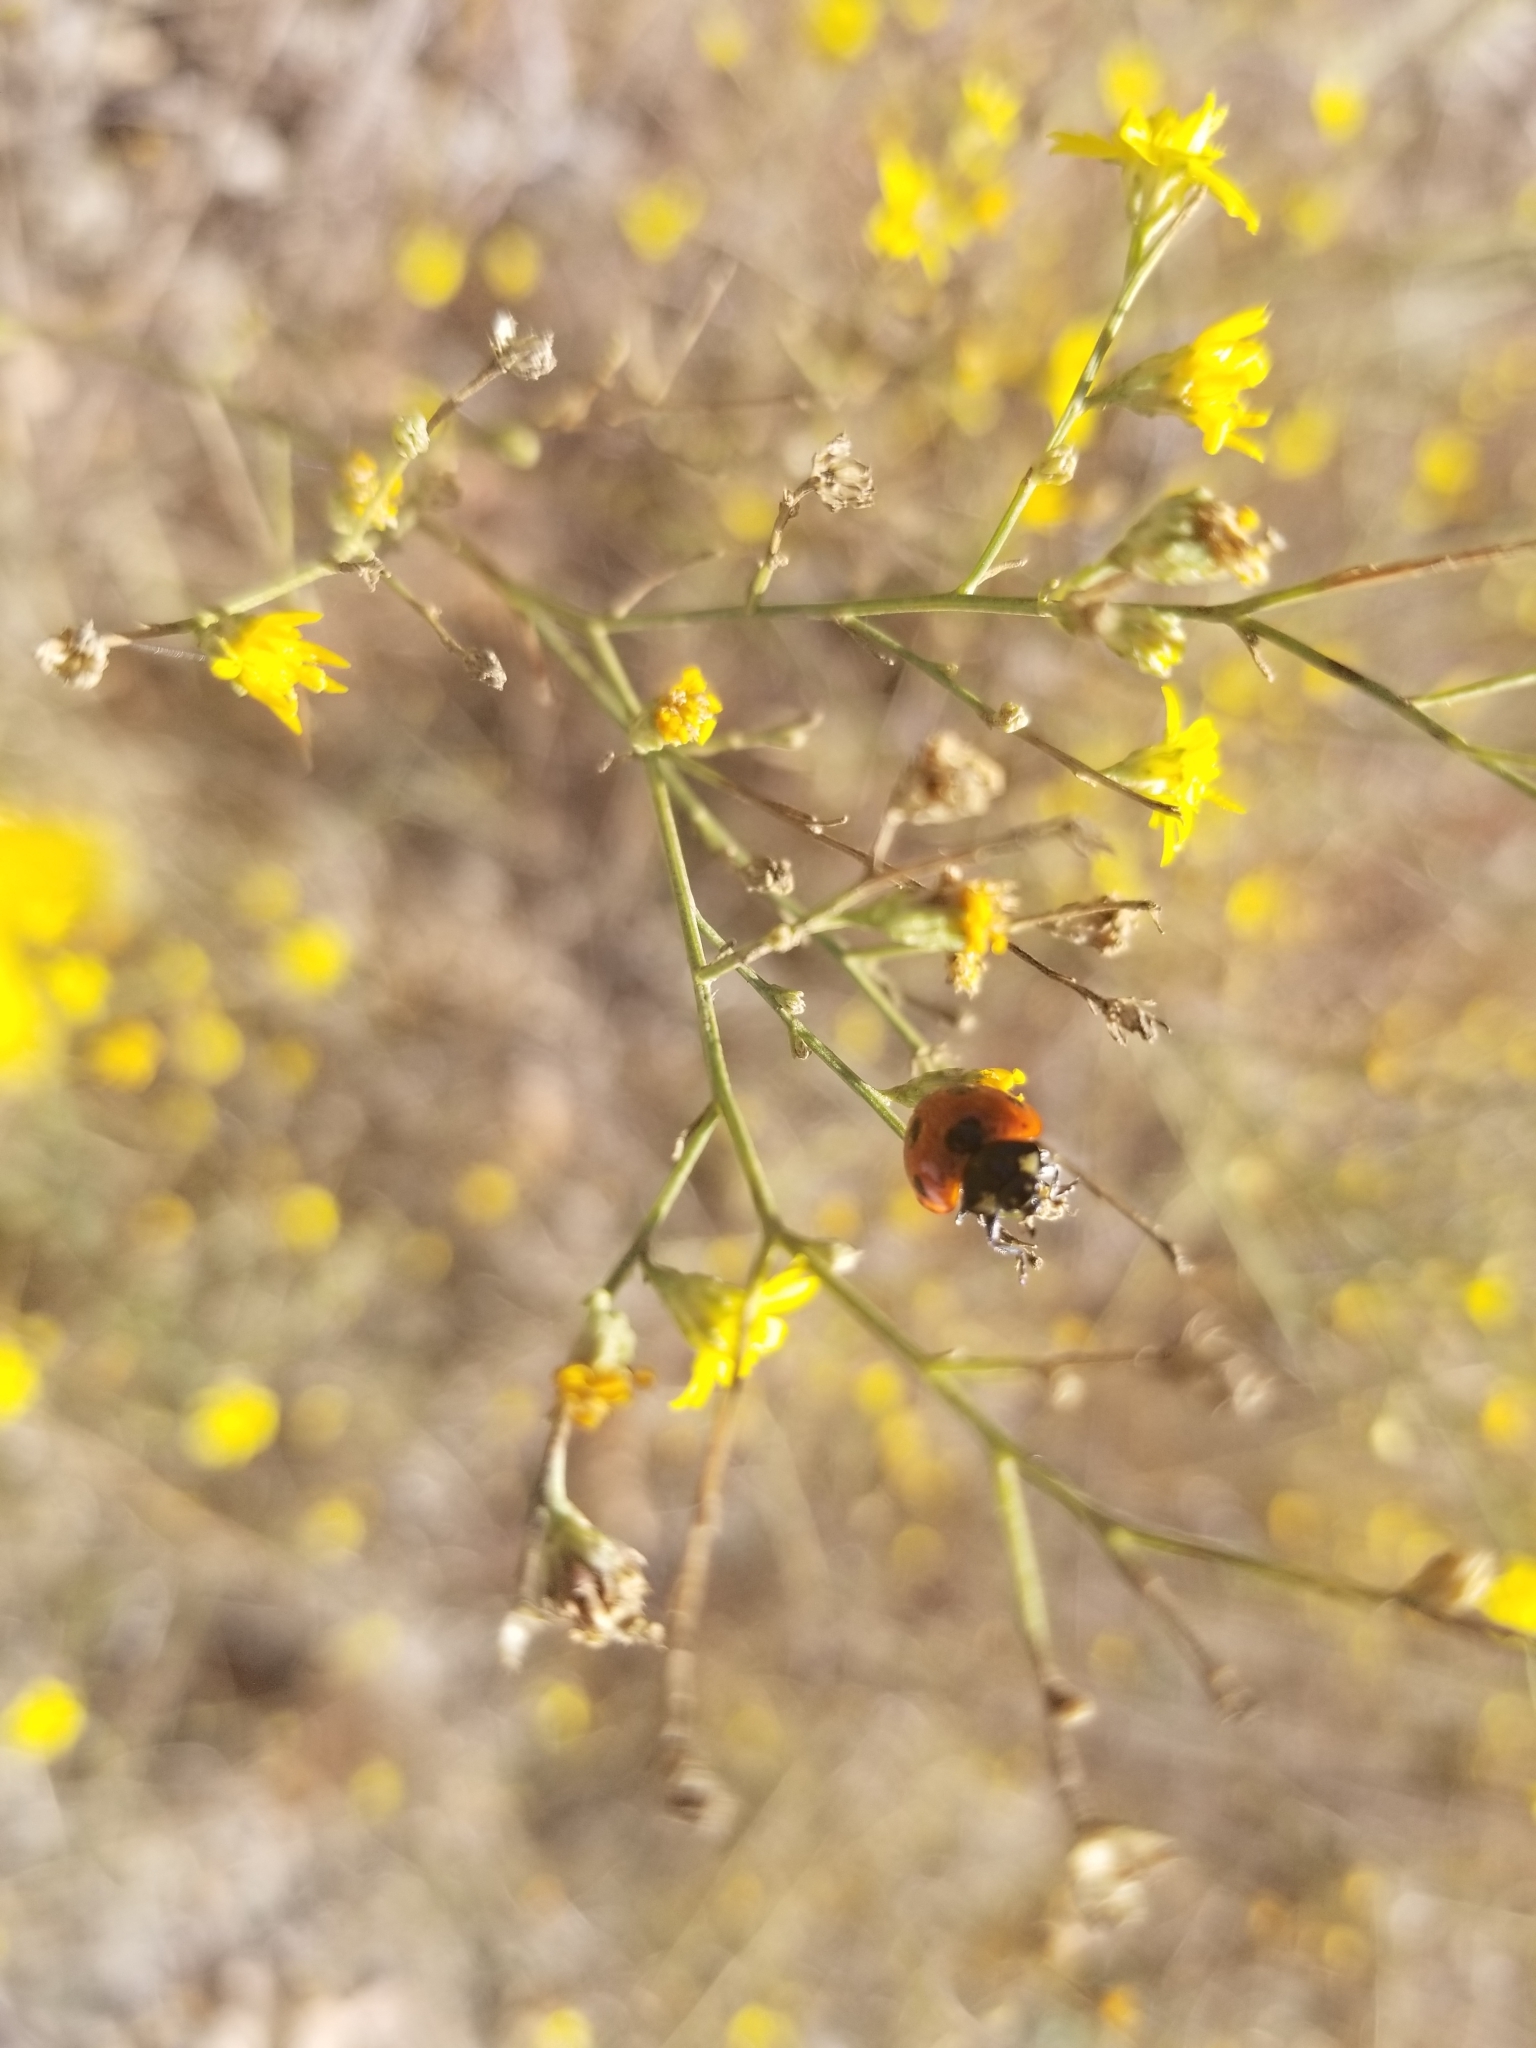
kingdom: Animalia
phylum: Arthropoda
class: Insecta
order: Coleoptera
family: Coccinellidae
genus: Coccinella
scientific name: Coccinella septempunctata
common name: Sevenspotted lady beetle
